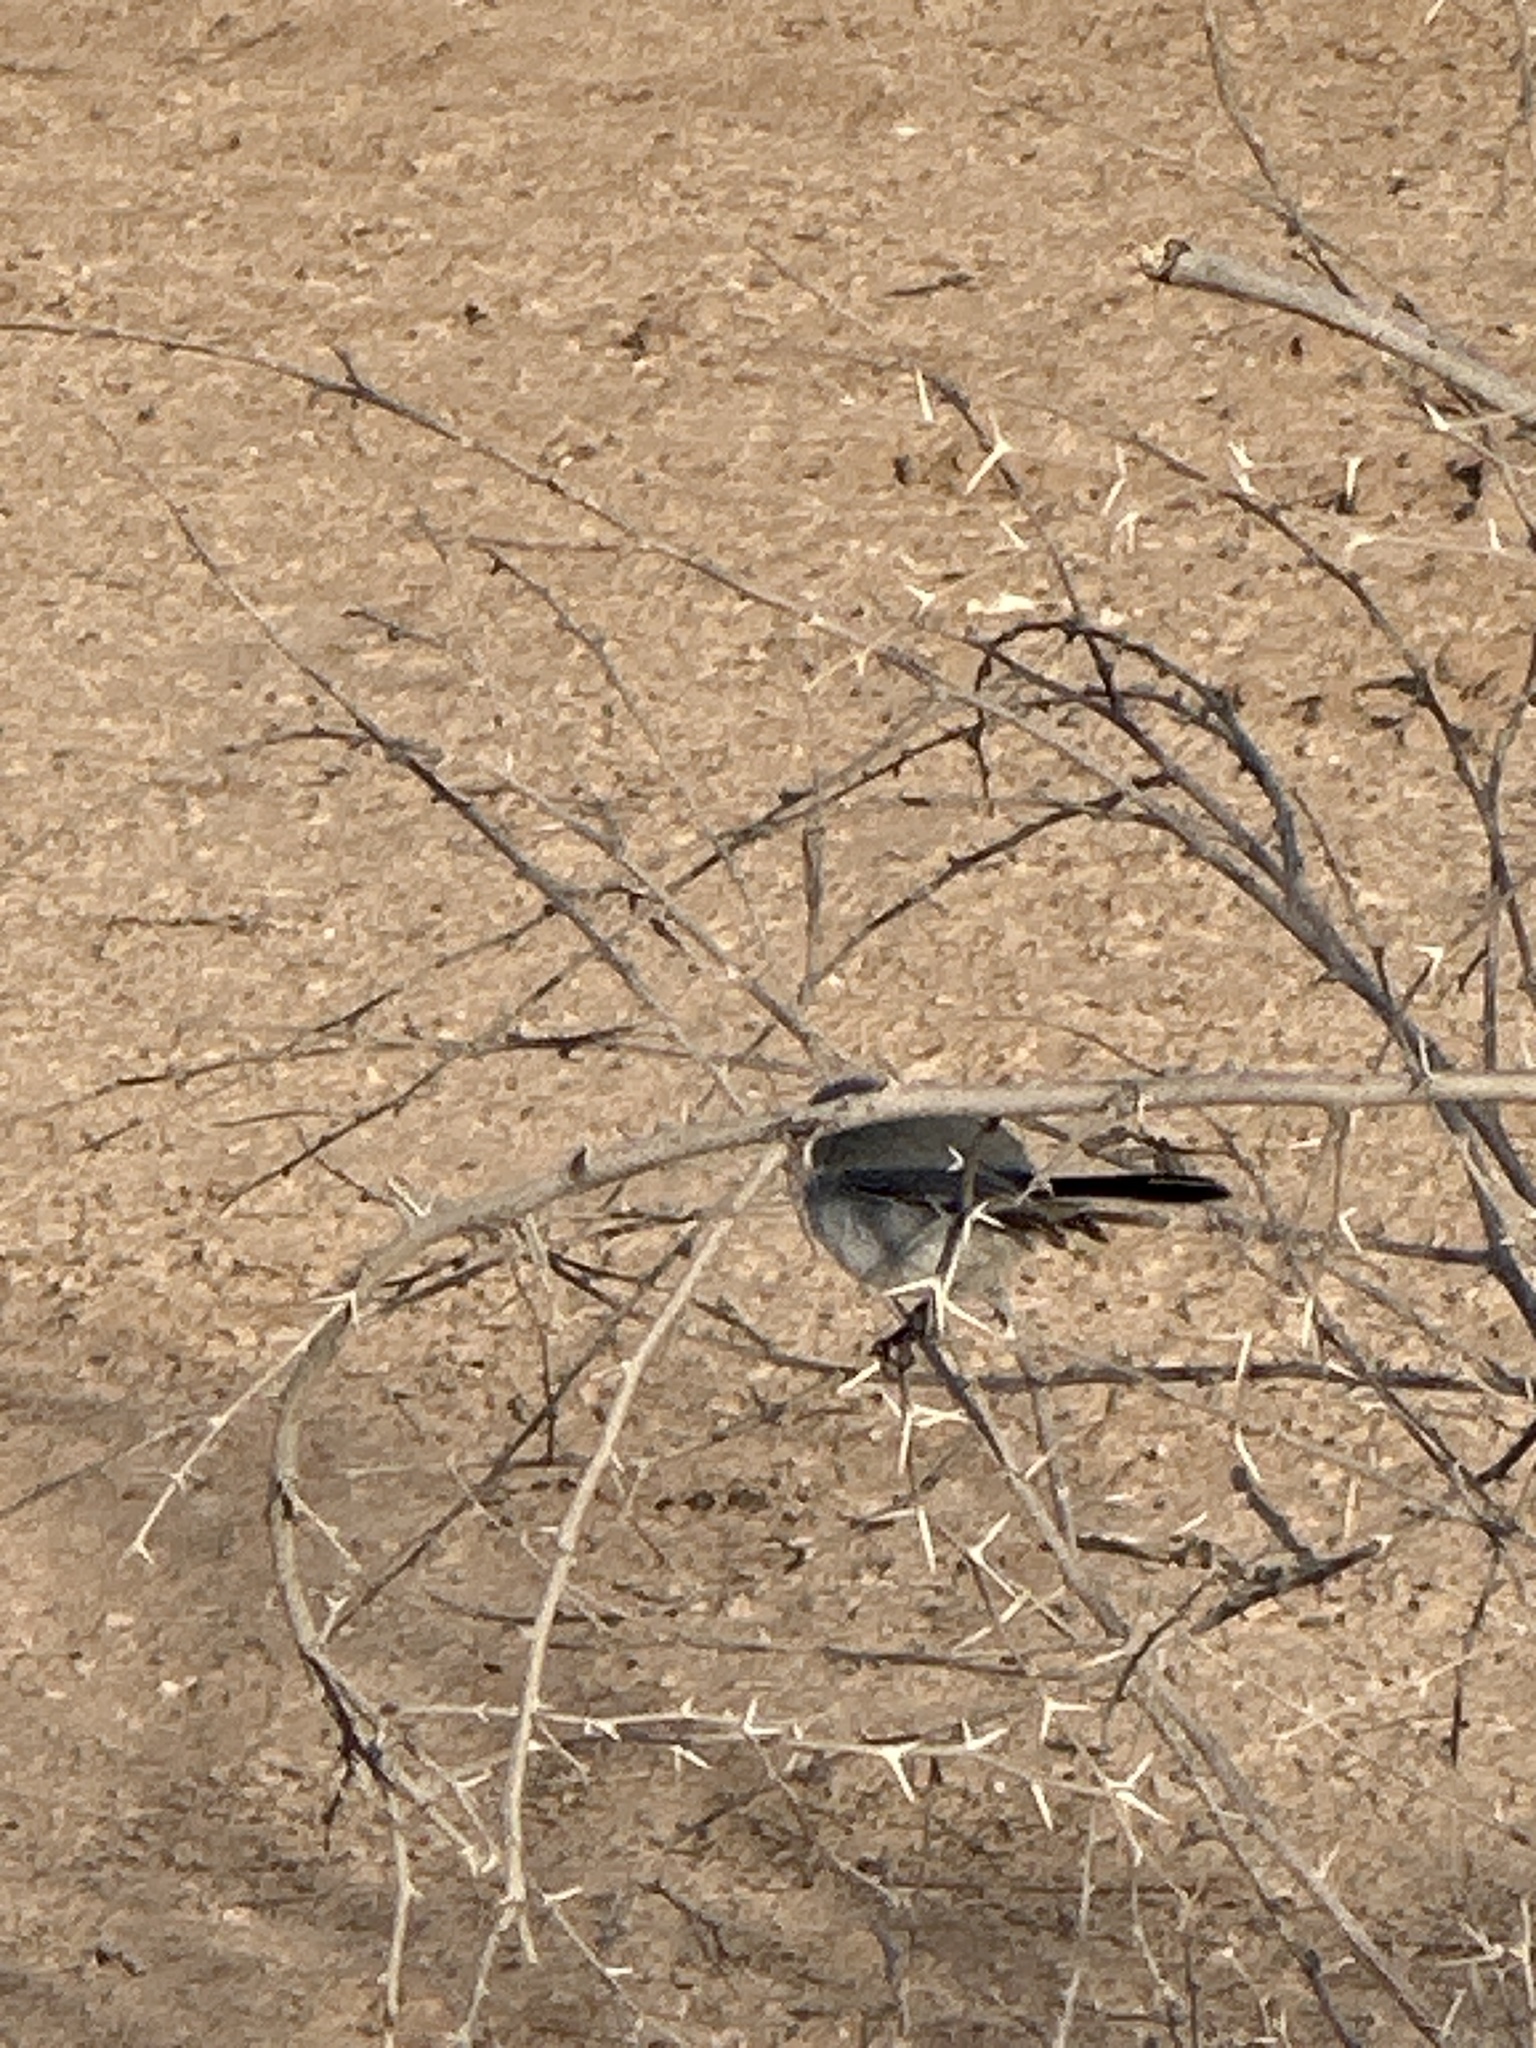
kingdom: Animalia
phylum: Chordata
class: Aves
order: Passeriformes
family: Polioptilidae
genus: Polioptila
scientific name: Polioptila melanura
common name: Black-tailed gnatcatcher
